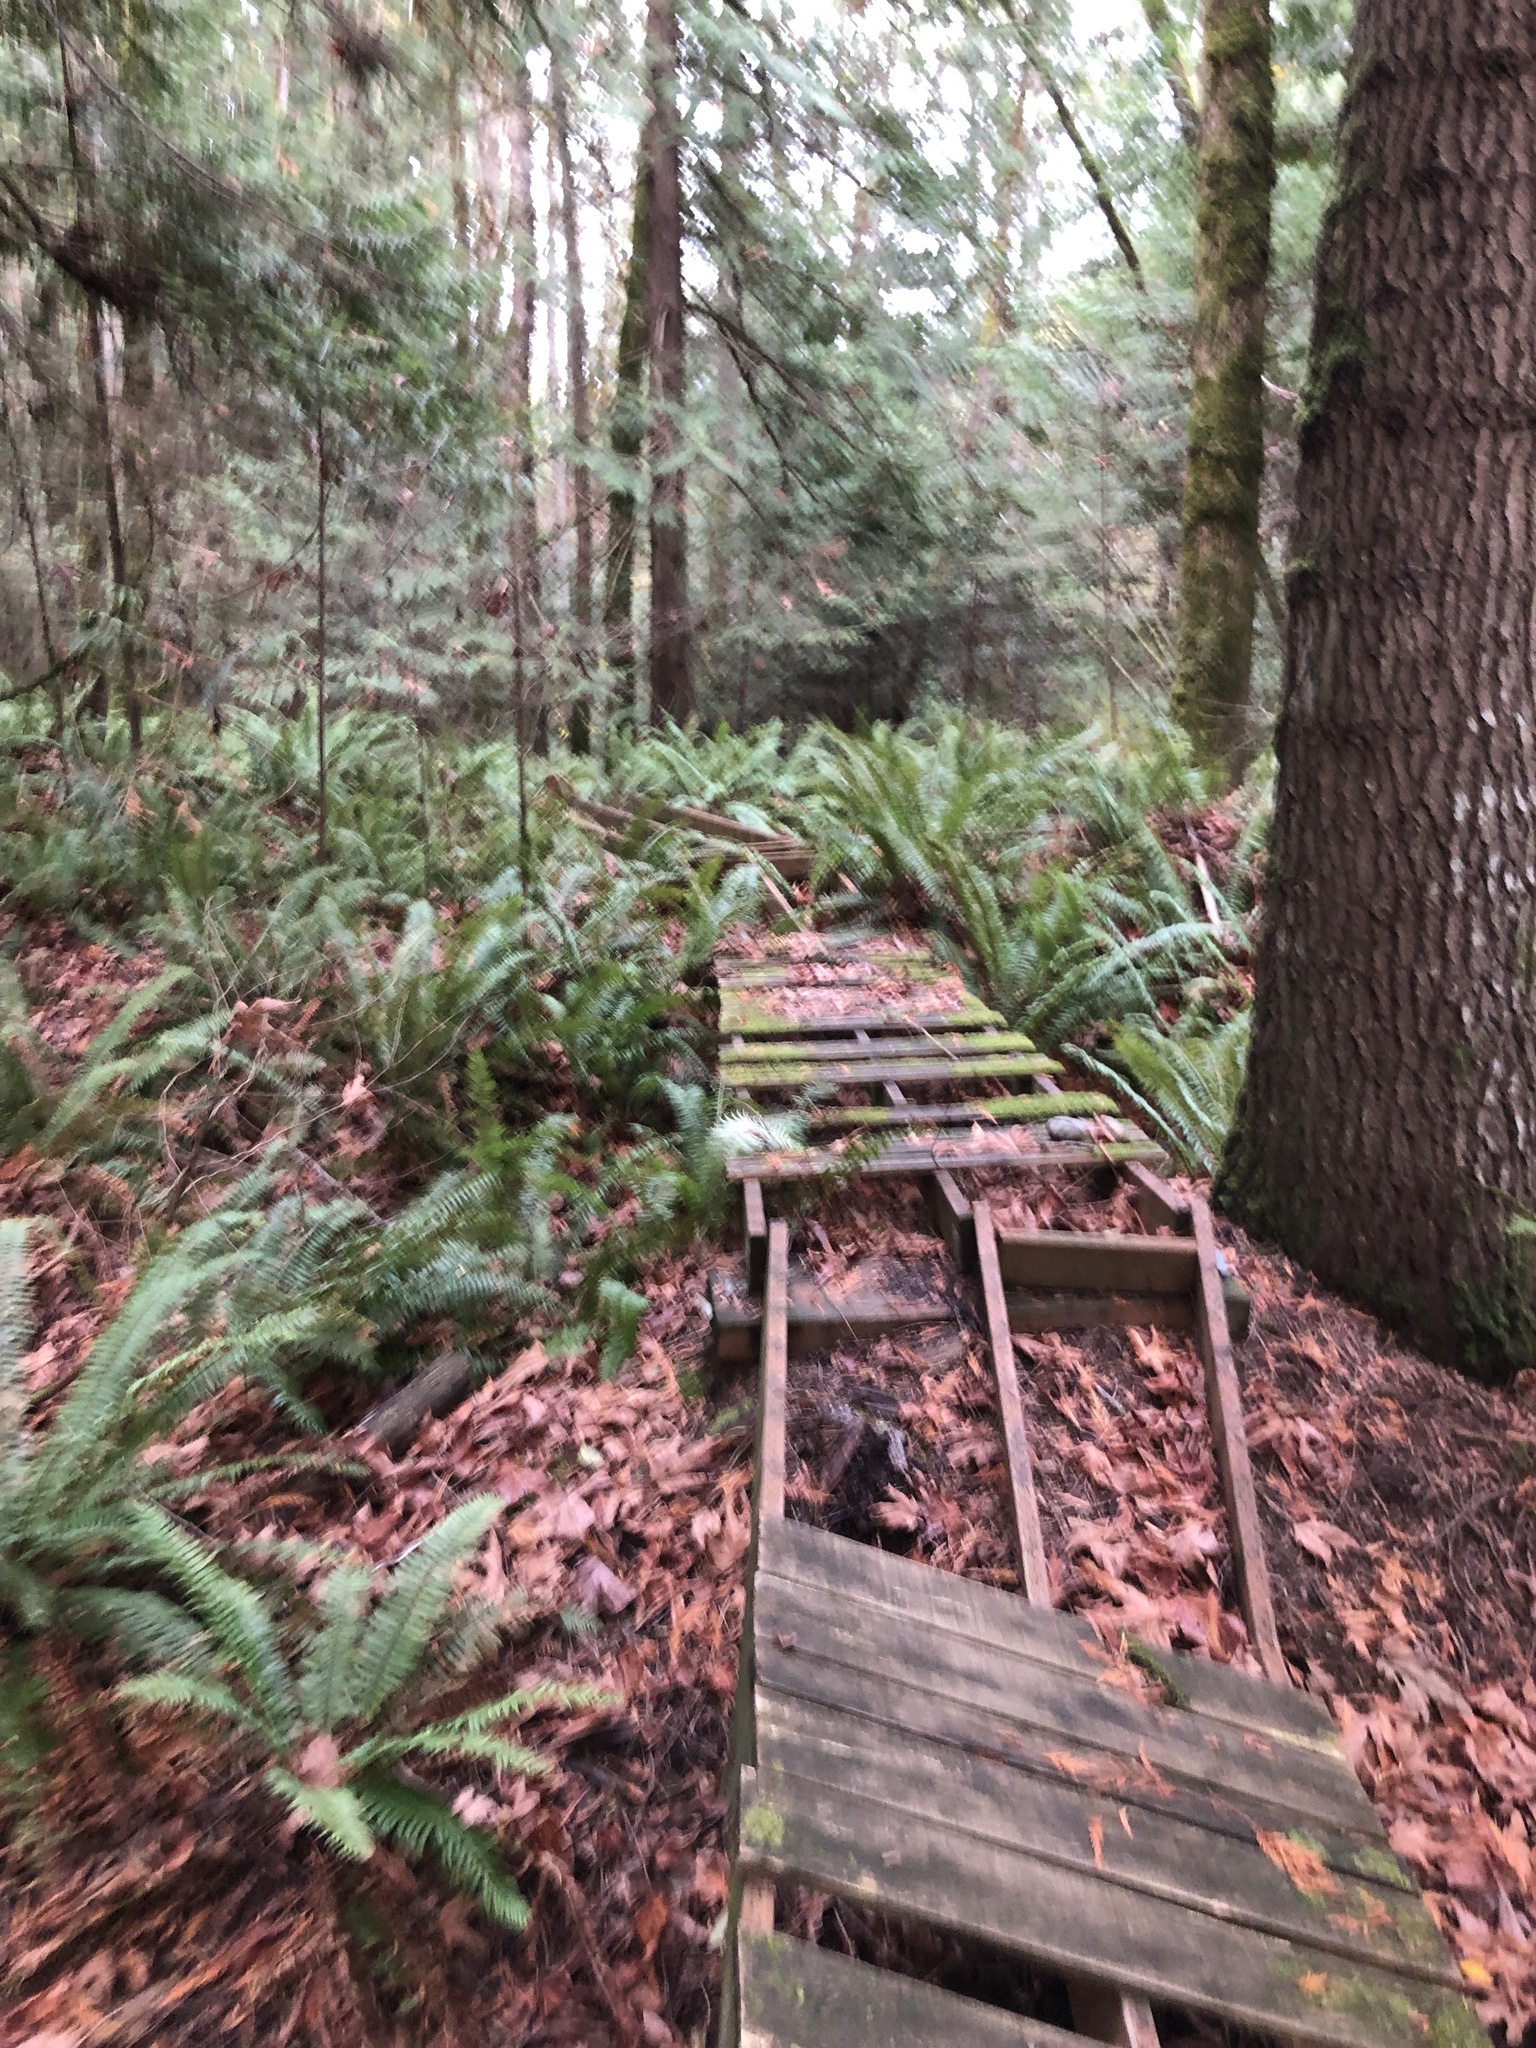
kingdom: Plantae
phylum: Tracheophyta
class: Polypodiopsida
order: Polypodiales
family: Dryopteridaceae
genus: Polystichum
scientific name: Polystichum munitum
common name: Western sword-fern
